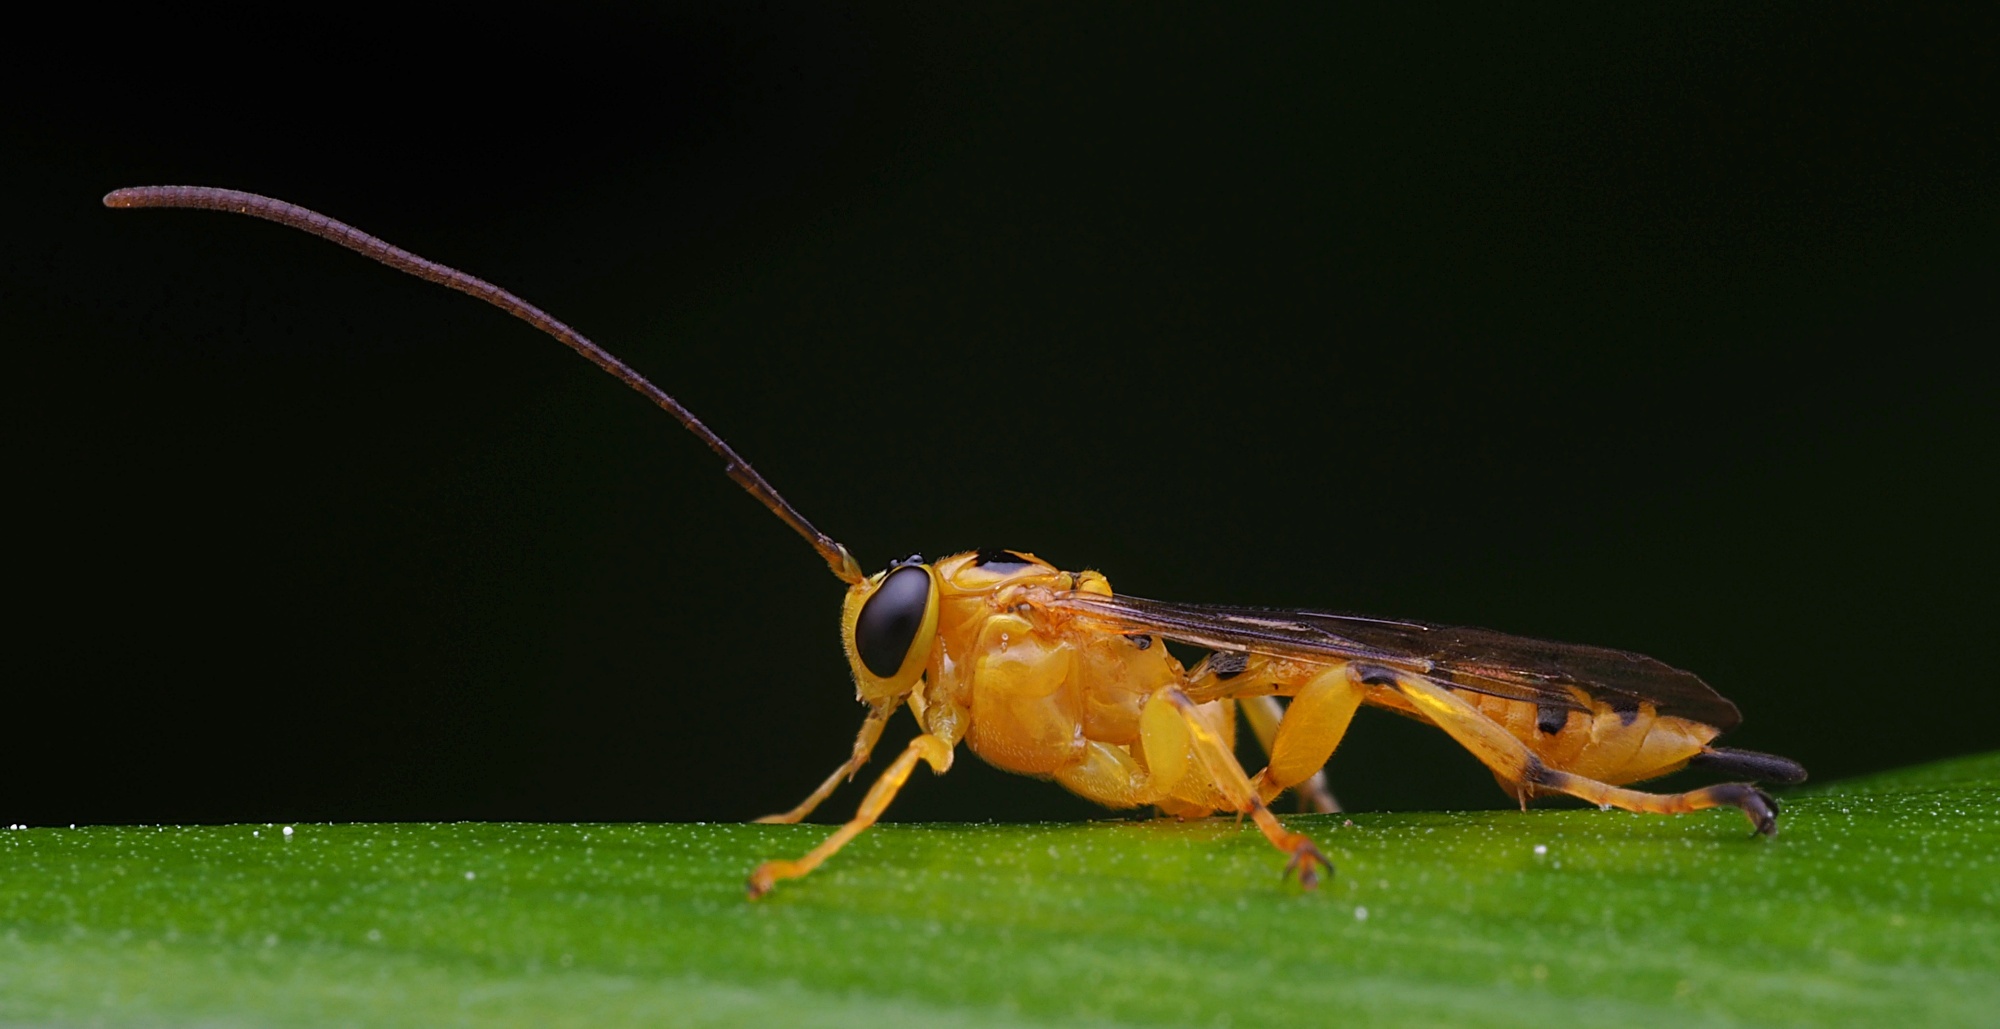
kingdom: Animalia
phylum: Arthropoda
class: Insecta
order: Hymenoptera
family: Ichneumonidae
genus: Xanthopimpla
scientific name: Xanthopimpla rhopaloceros
